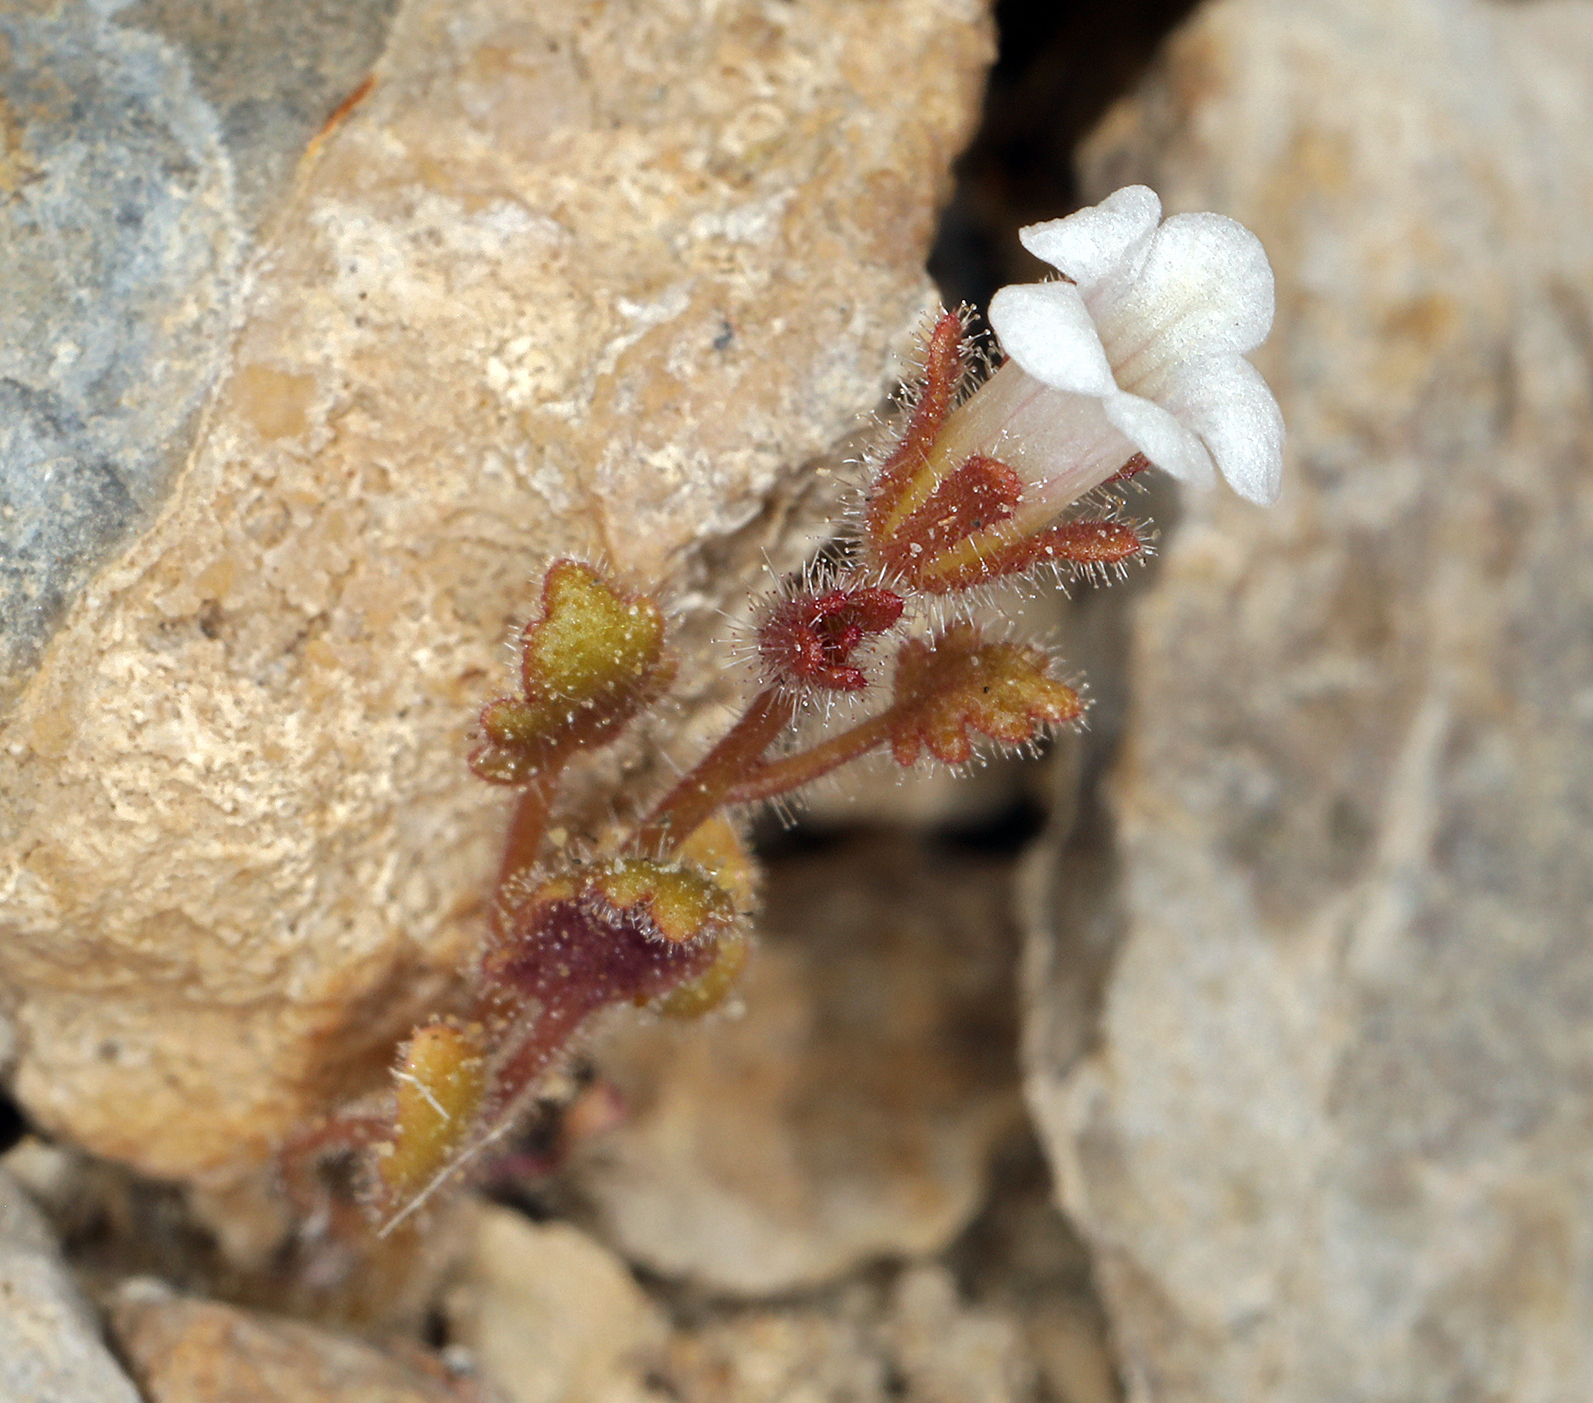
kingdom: Plantae
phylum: Tracheophyta
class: Magnoliopsida
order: Boraginales
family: Hydrophyllaceae
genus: Phacelia
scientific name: Phacelia rotundifolia
